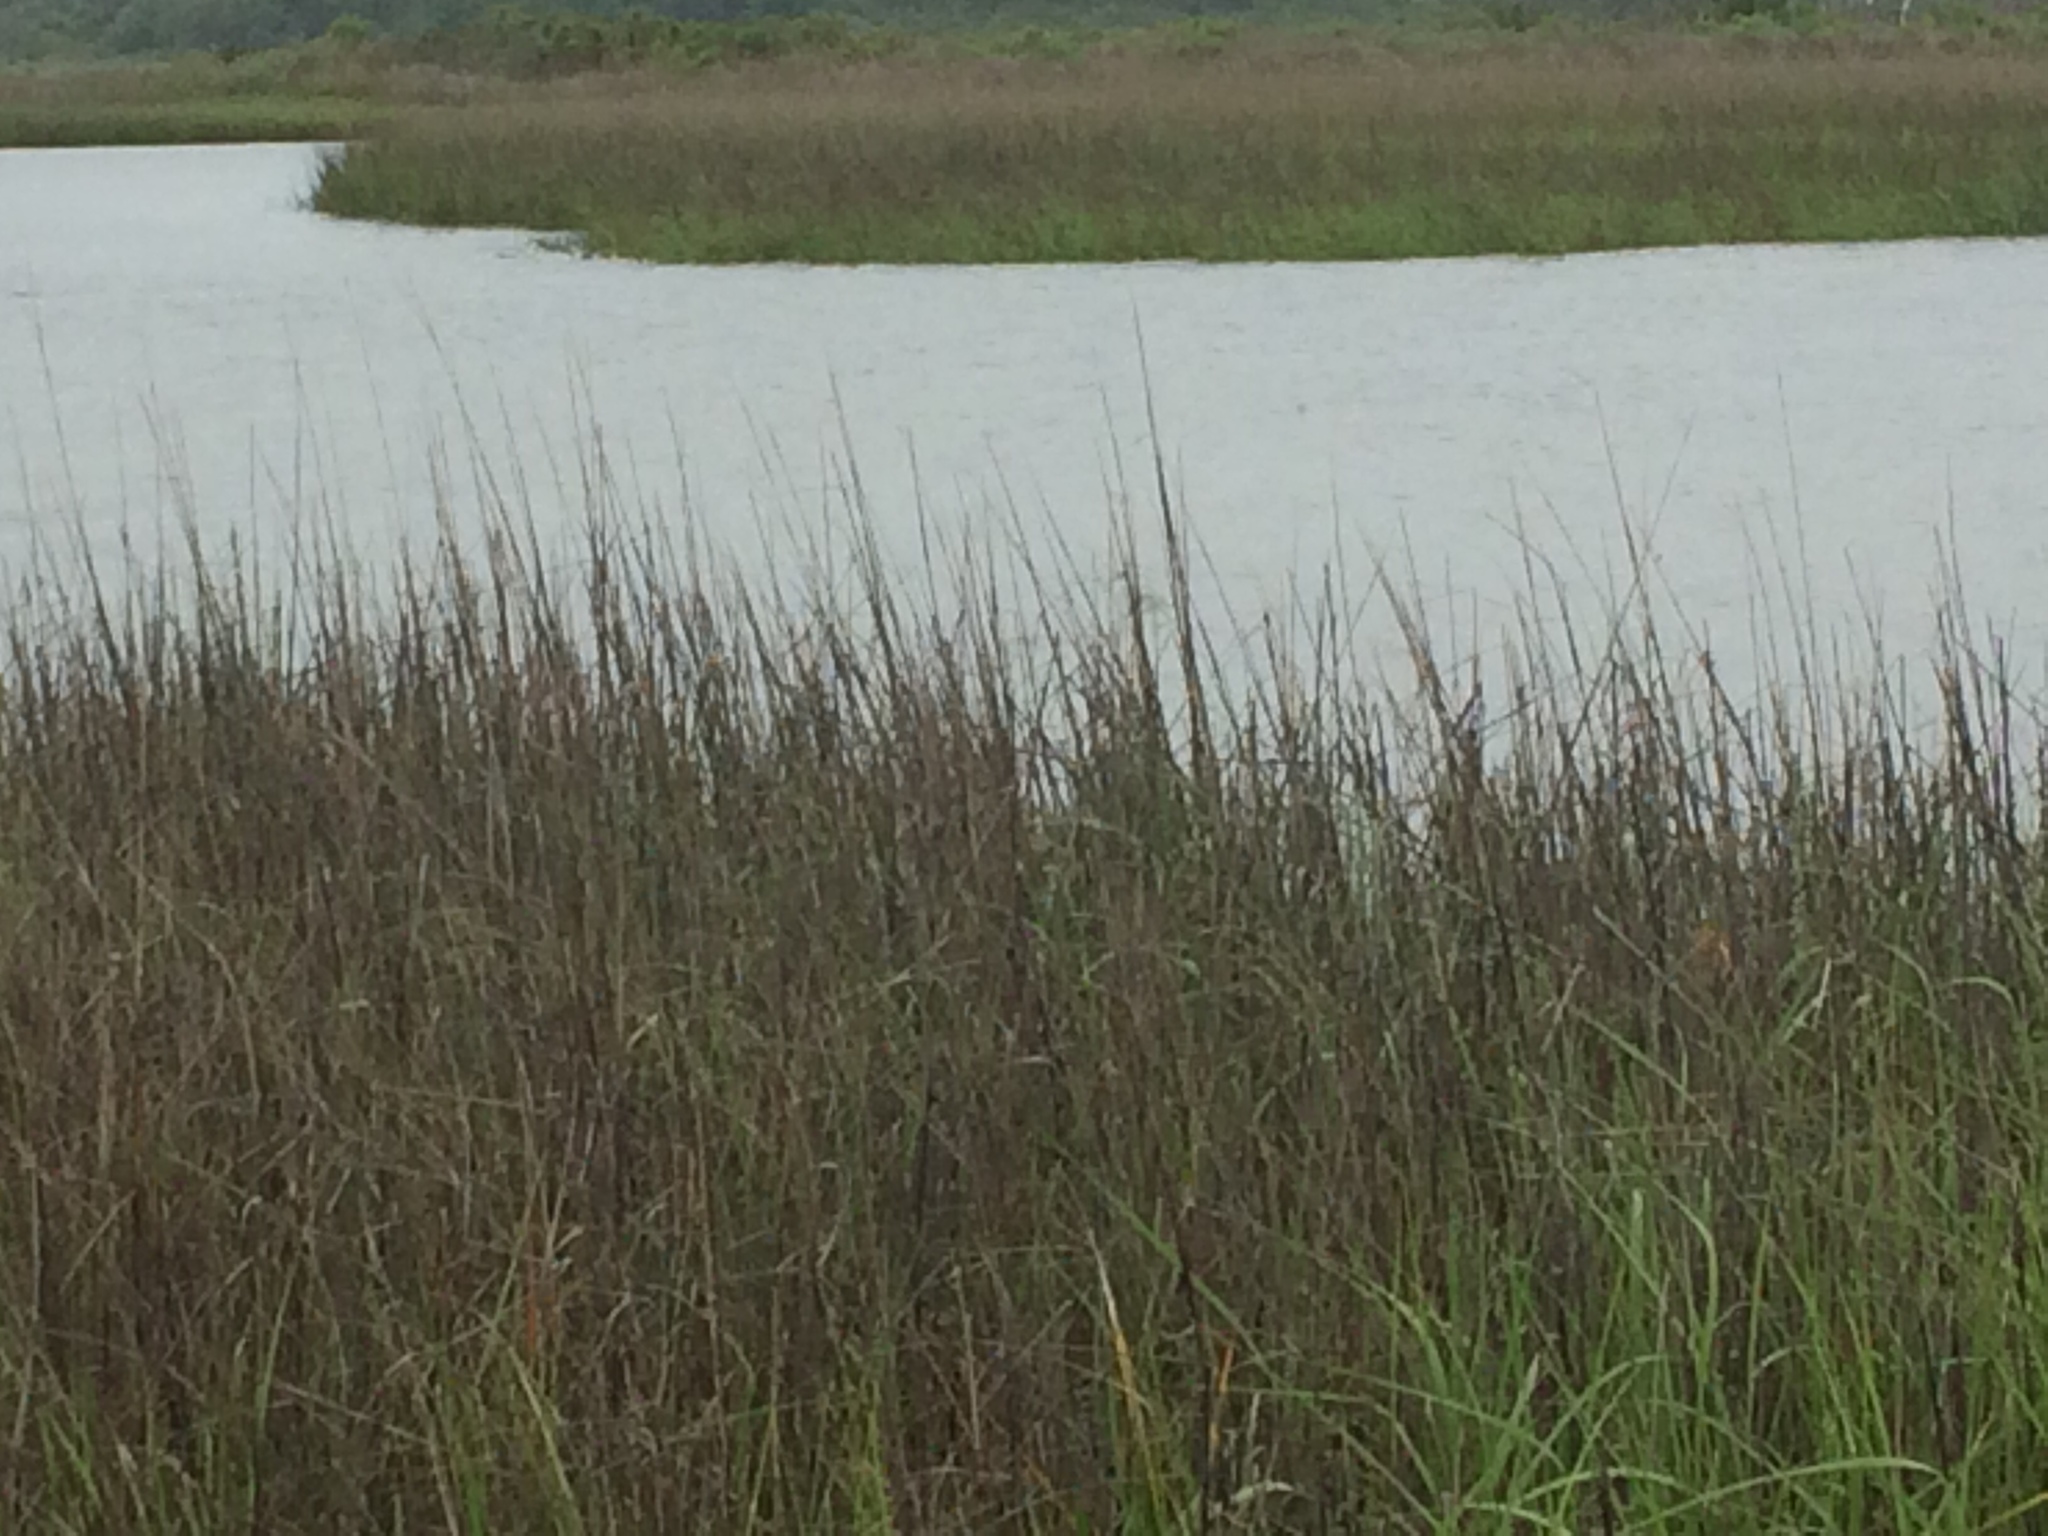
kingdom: Plantae
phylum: Tracheophyta
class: Liliopsida
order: Poales
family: Juncaceae
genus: Juncus
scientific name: Juncus roemerianus
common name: Roemer's rush
